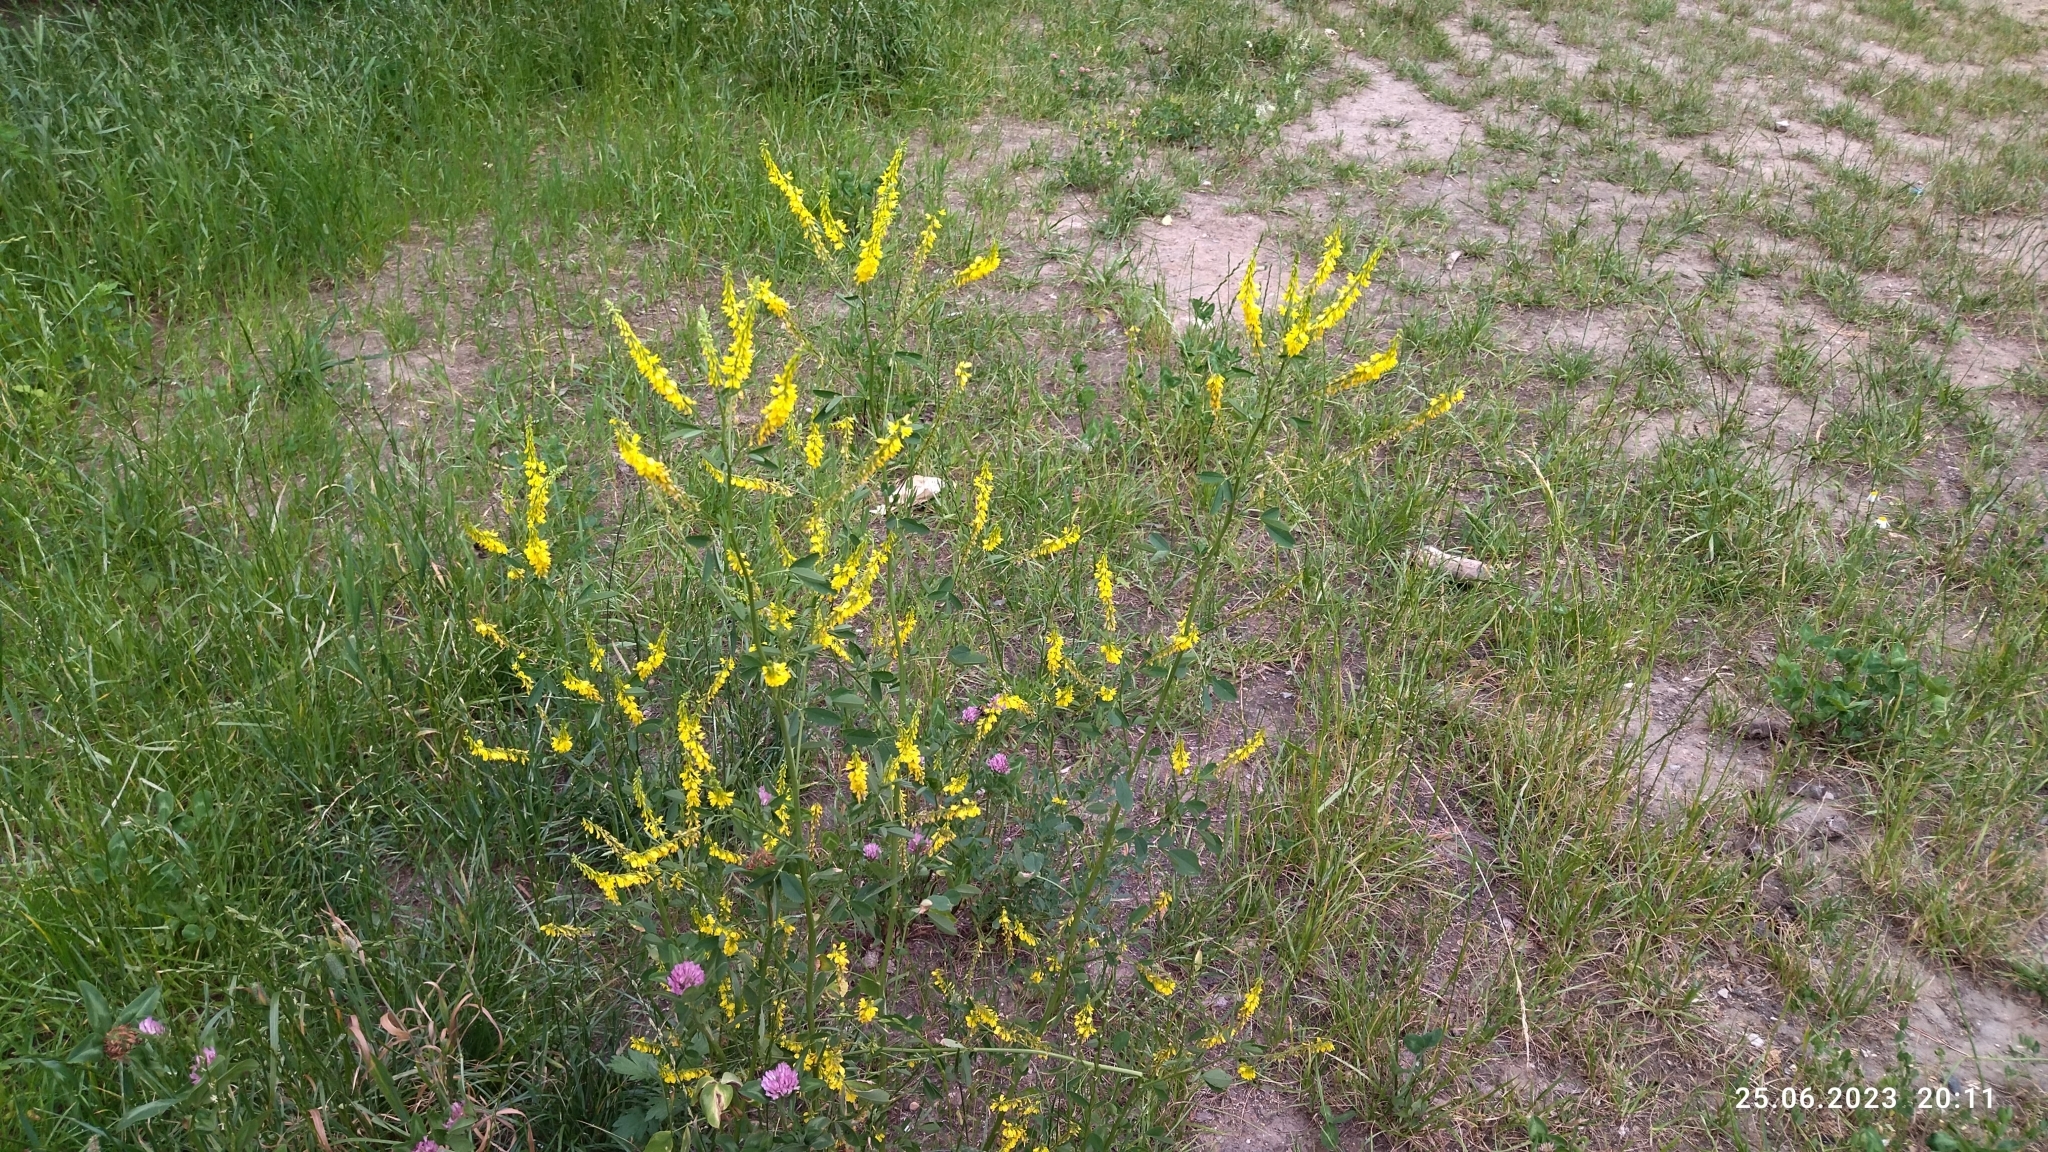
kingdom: Plantae
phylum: Tracheophyta
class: Magnoliopsida
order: Fabales
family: Fabaceae
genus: Melilotus
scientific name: Melilotus officinalis
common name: Sweetclover
